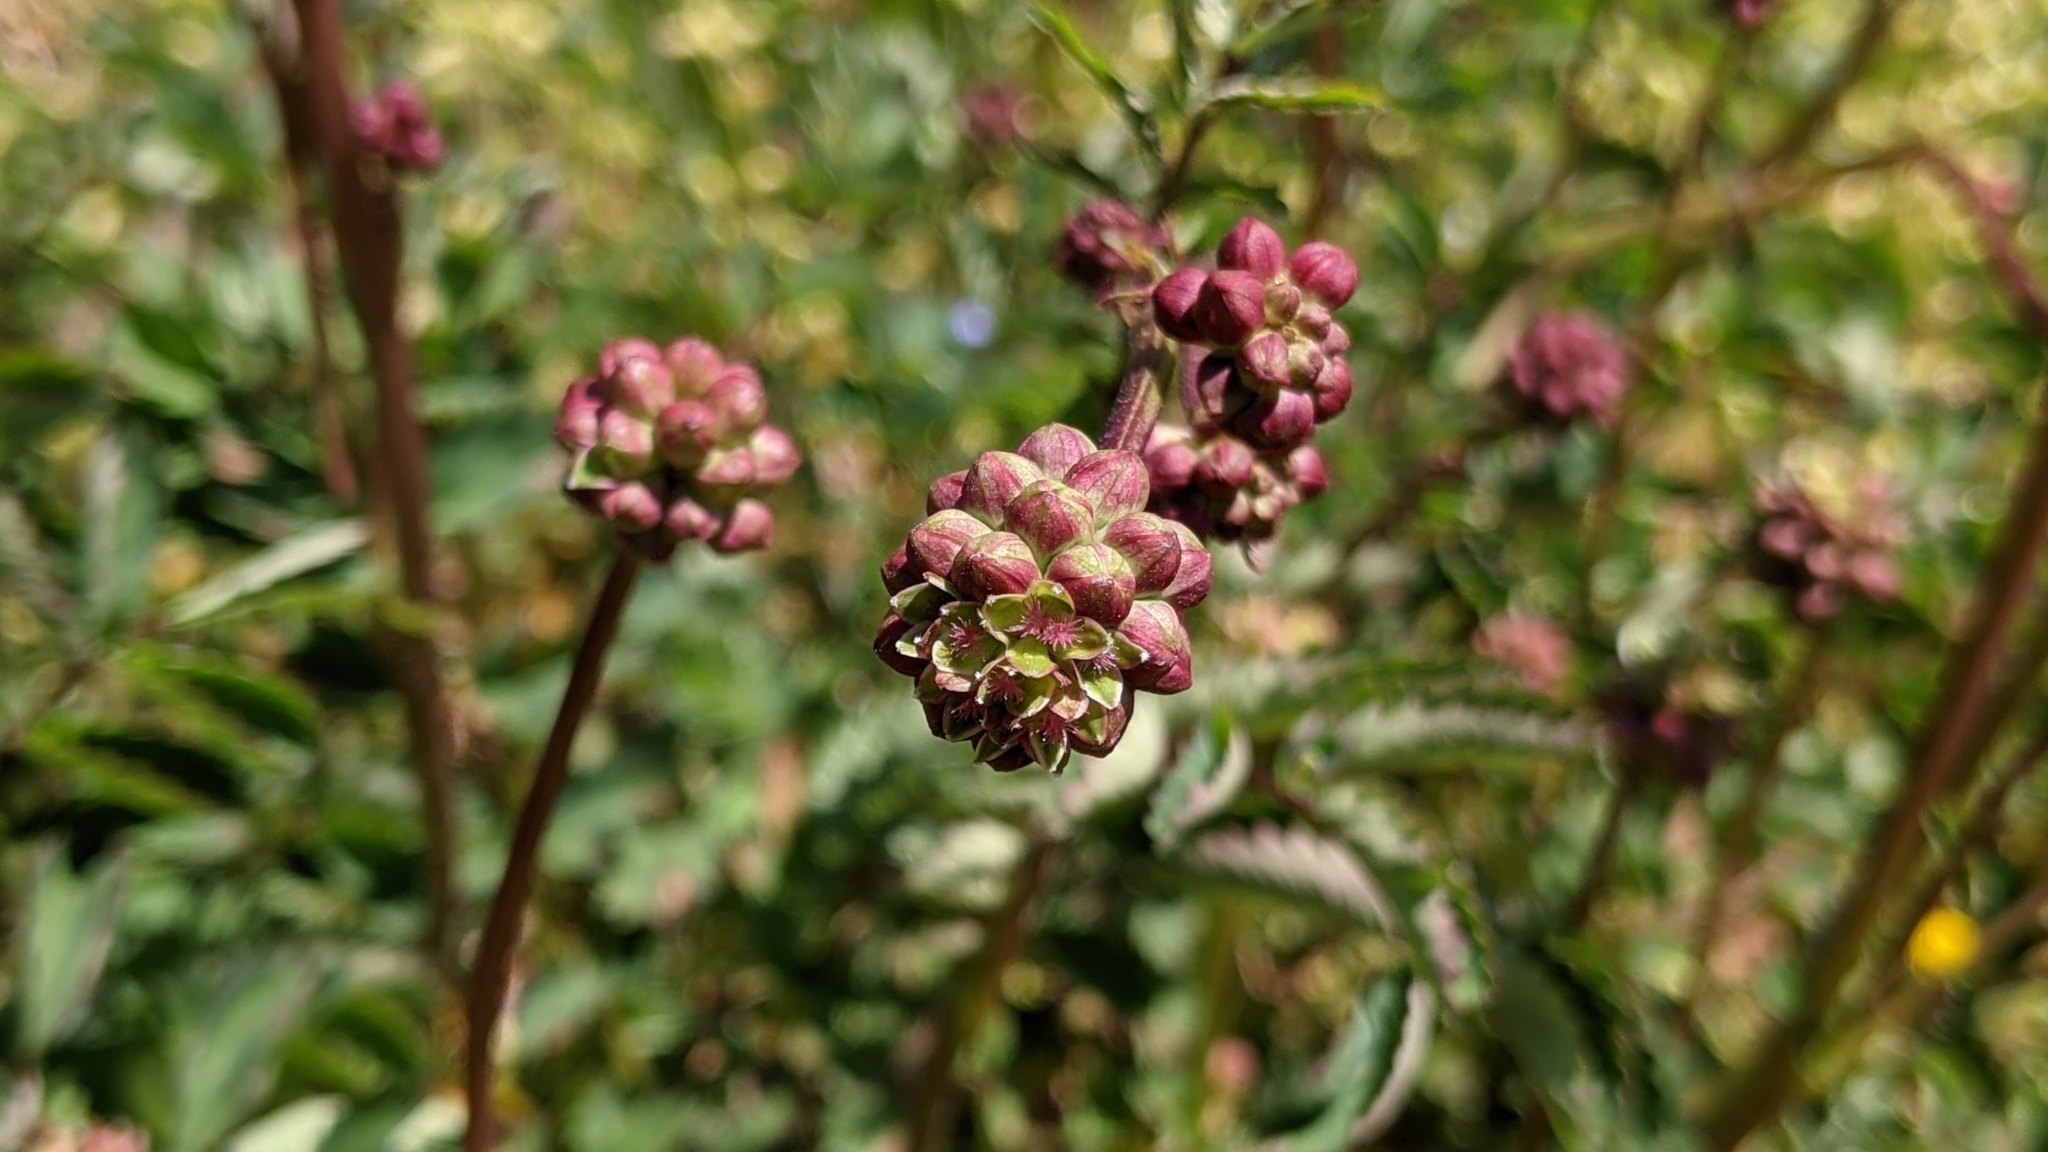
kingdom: Plantae
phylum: Tracheophyta
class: Magnoliopsida
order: Rosales
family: Rosaceae
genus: Poterium
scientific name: Poterium sanguisorba
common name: Salad burnet
